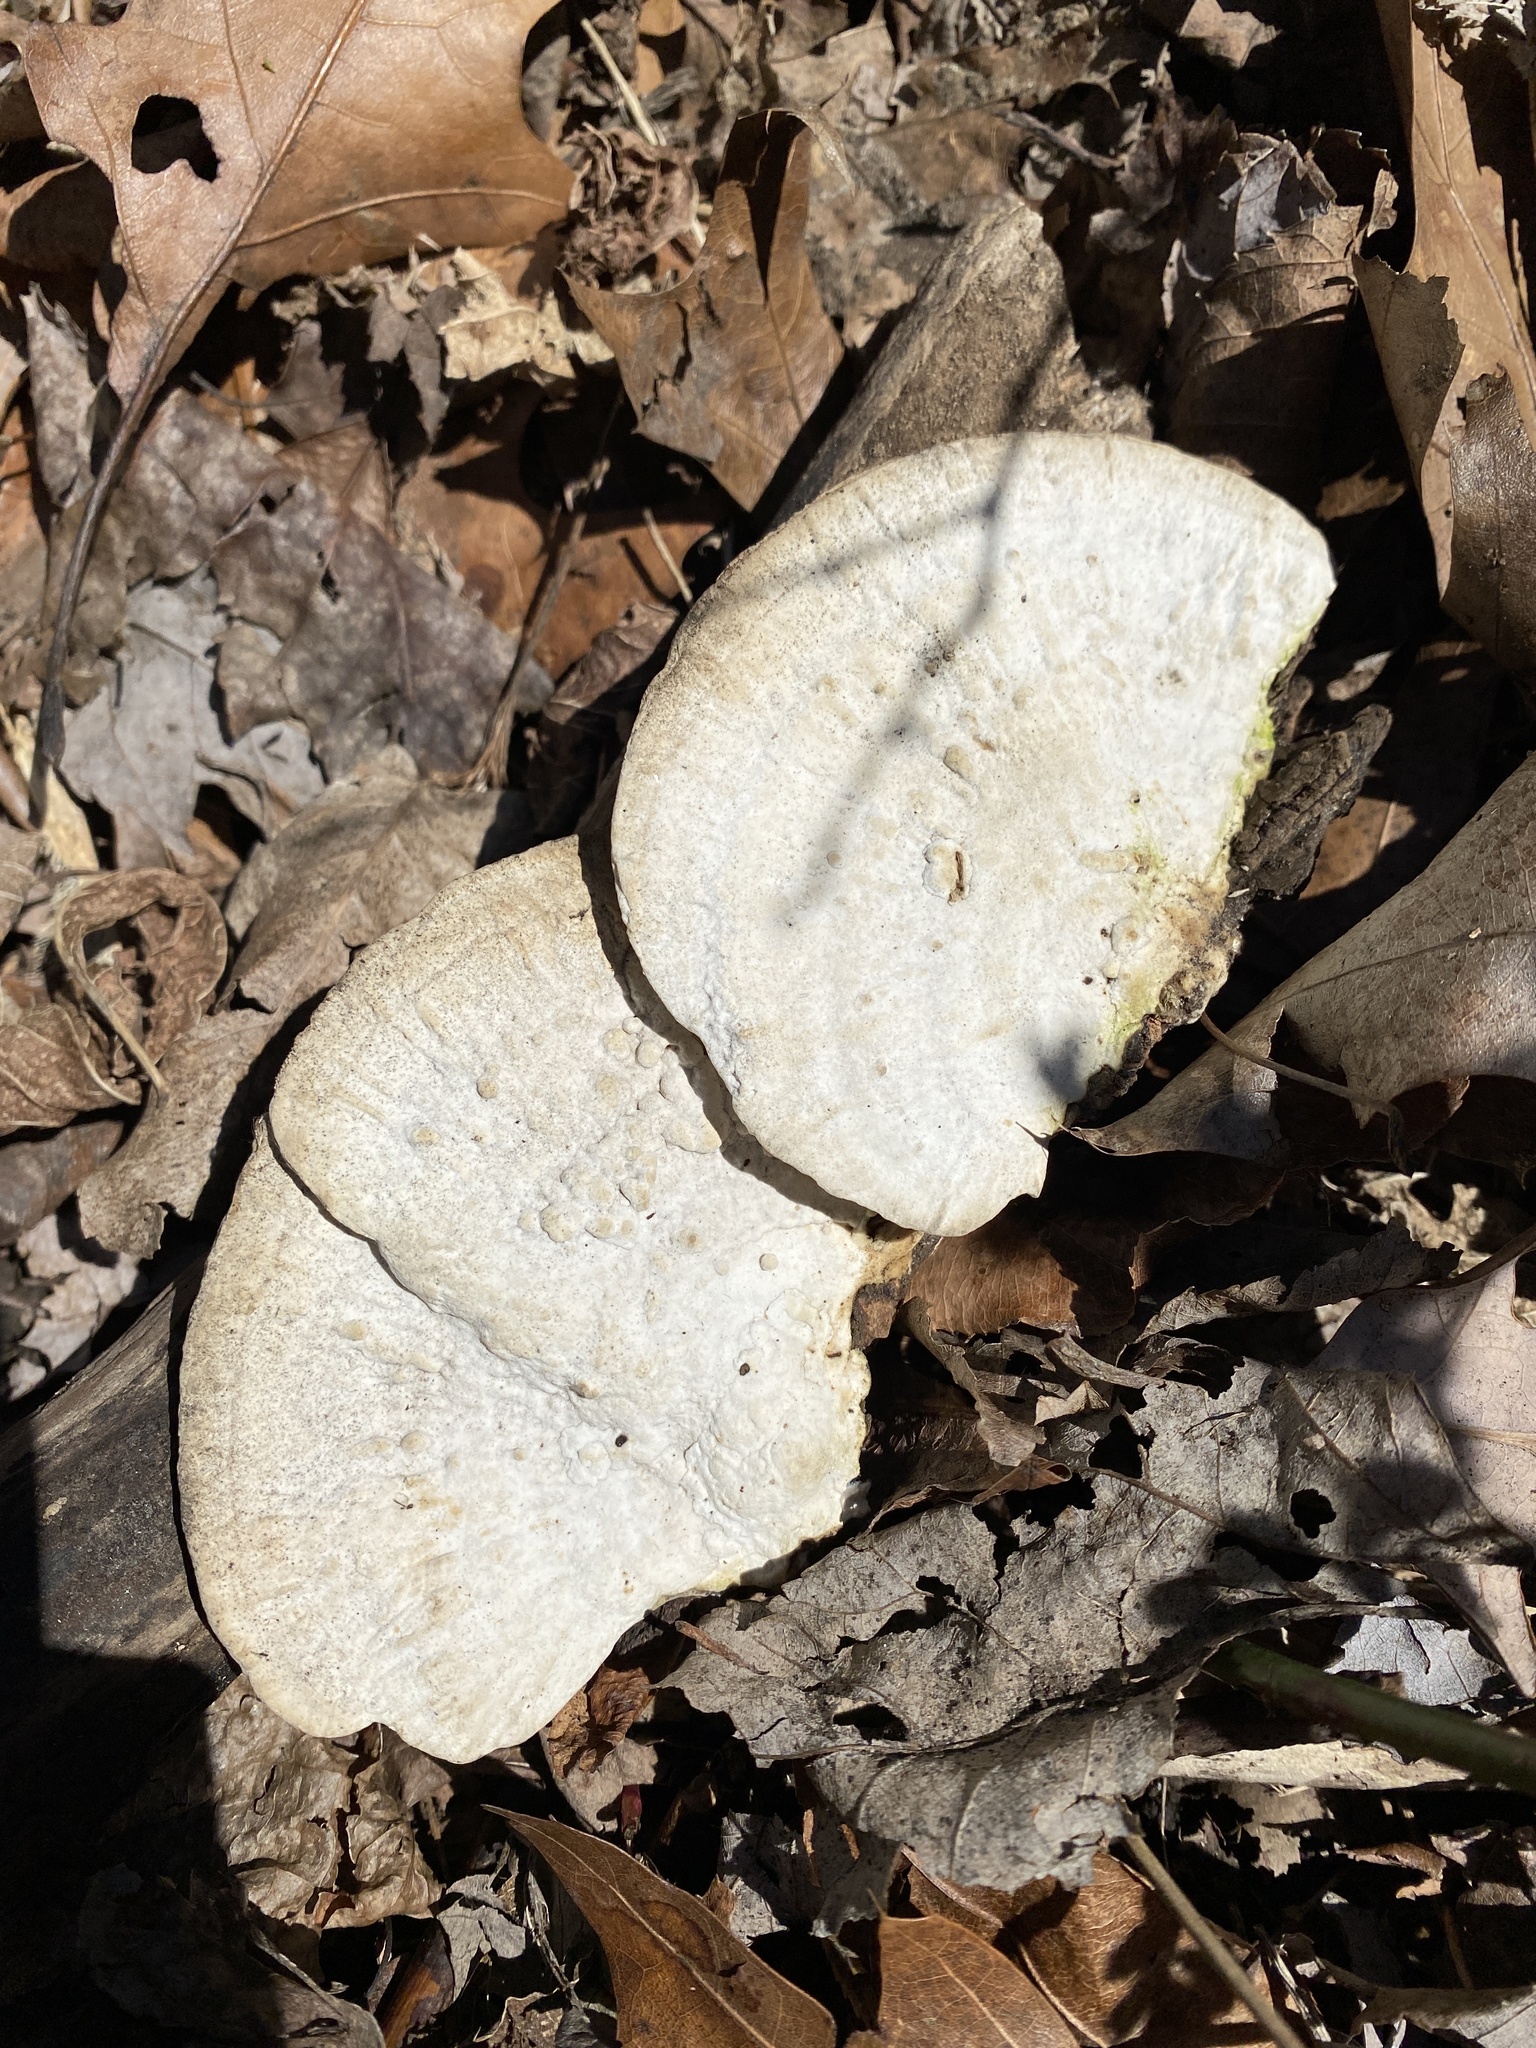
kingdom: Fungi
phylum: Basidiomycota
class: Agaricomycetes
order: Polyporales
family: Polyporaceae
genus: Trametes
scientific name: Trametes lactinea
